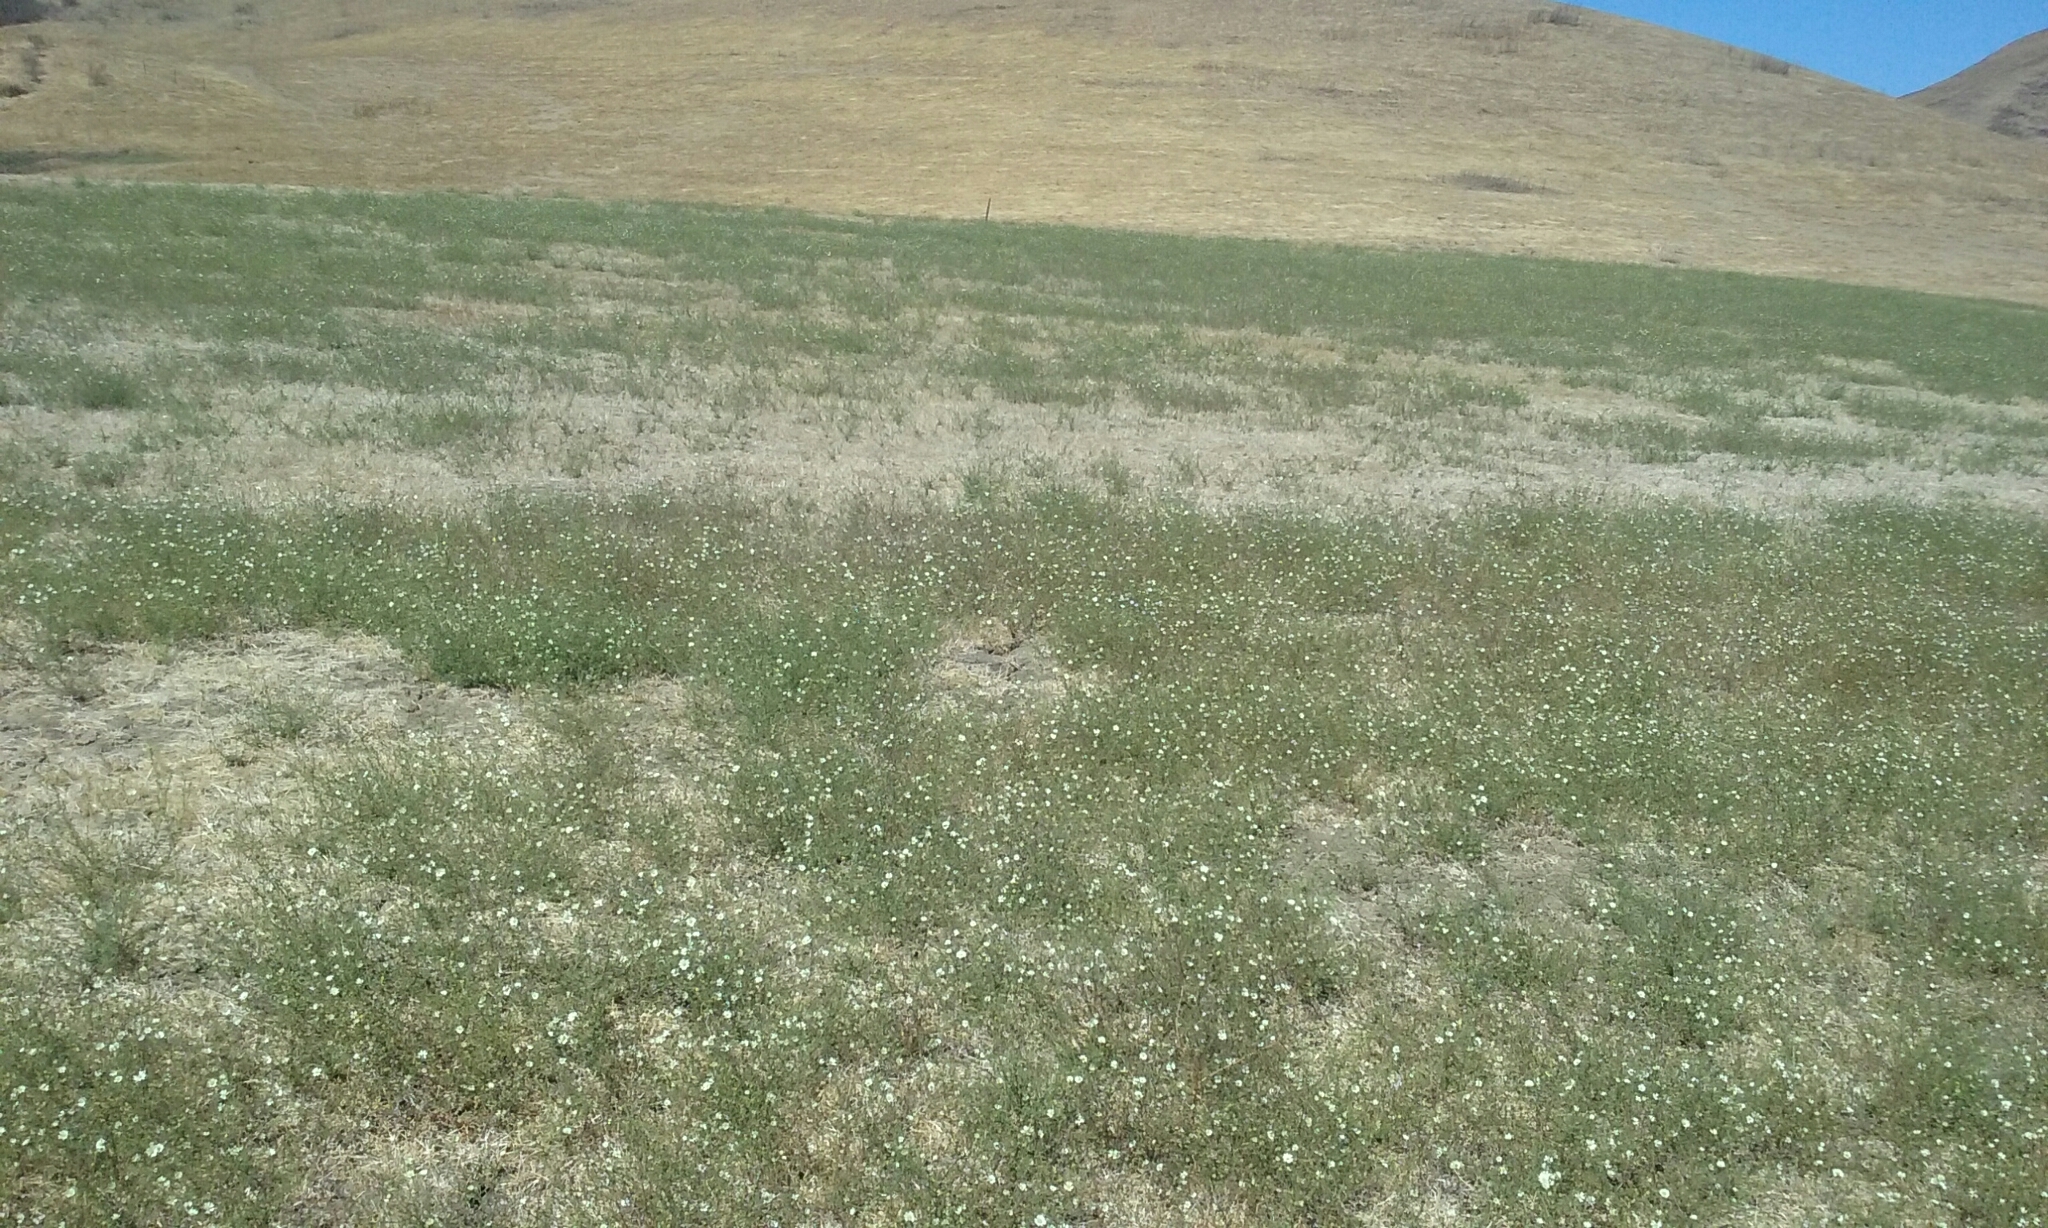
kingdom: Plantae
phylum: Tracheophyta
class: Magnoliopsida
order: Asterales
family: Asteraceae
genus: Hemizonia
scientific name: Hemizonia congesta
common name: Hayfield tarweed
